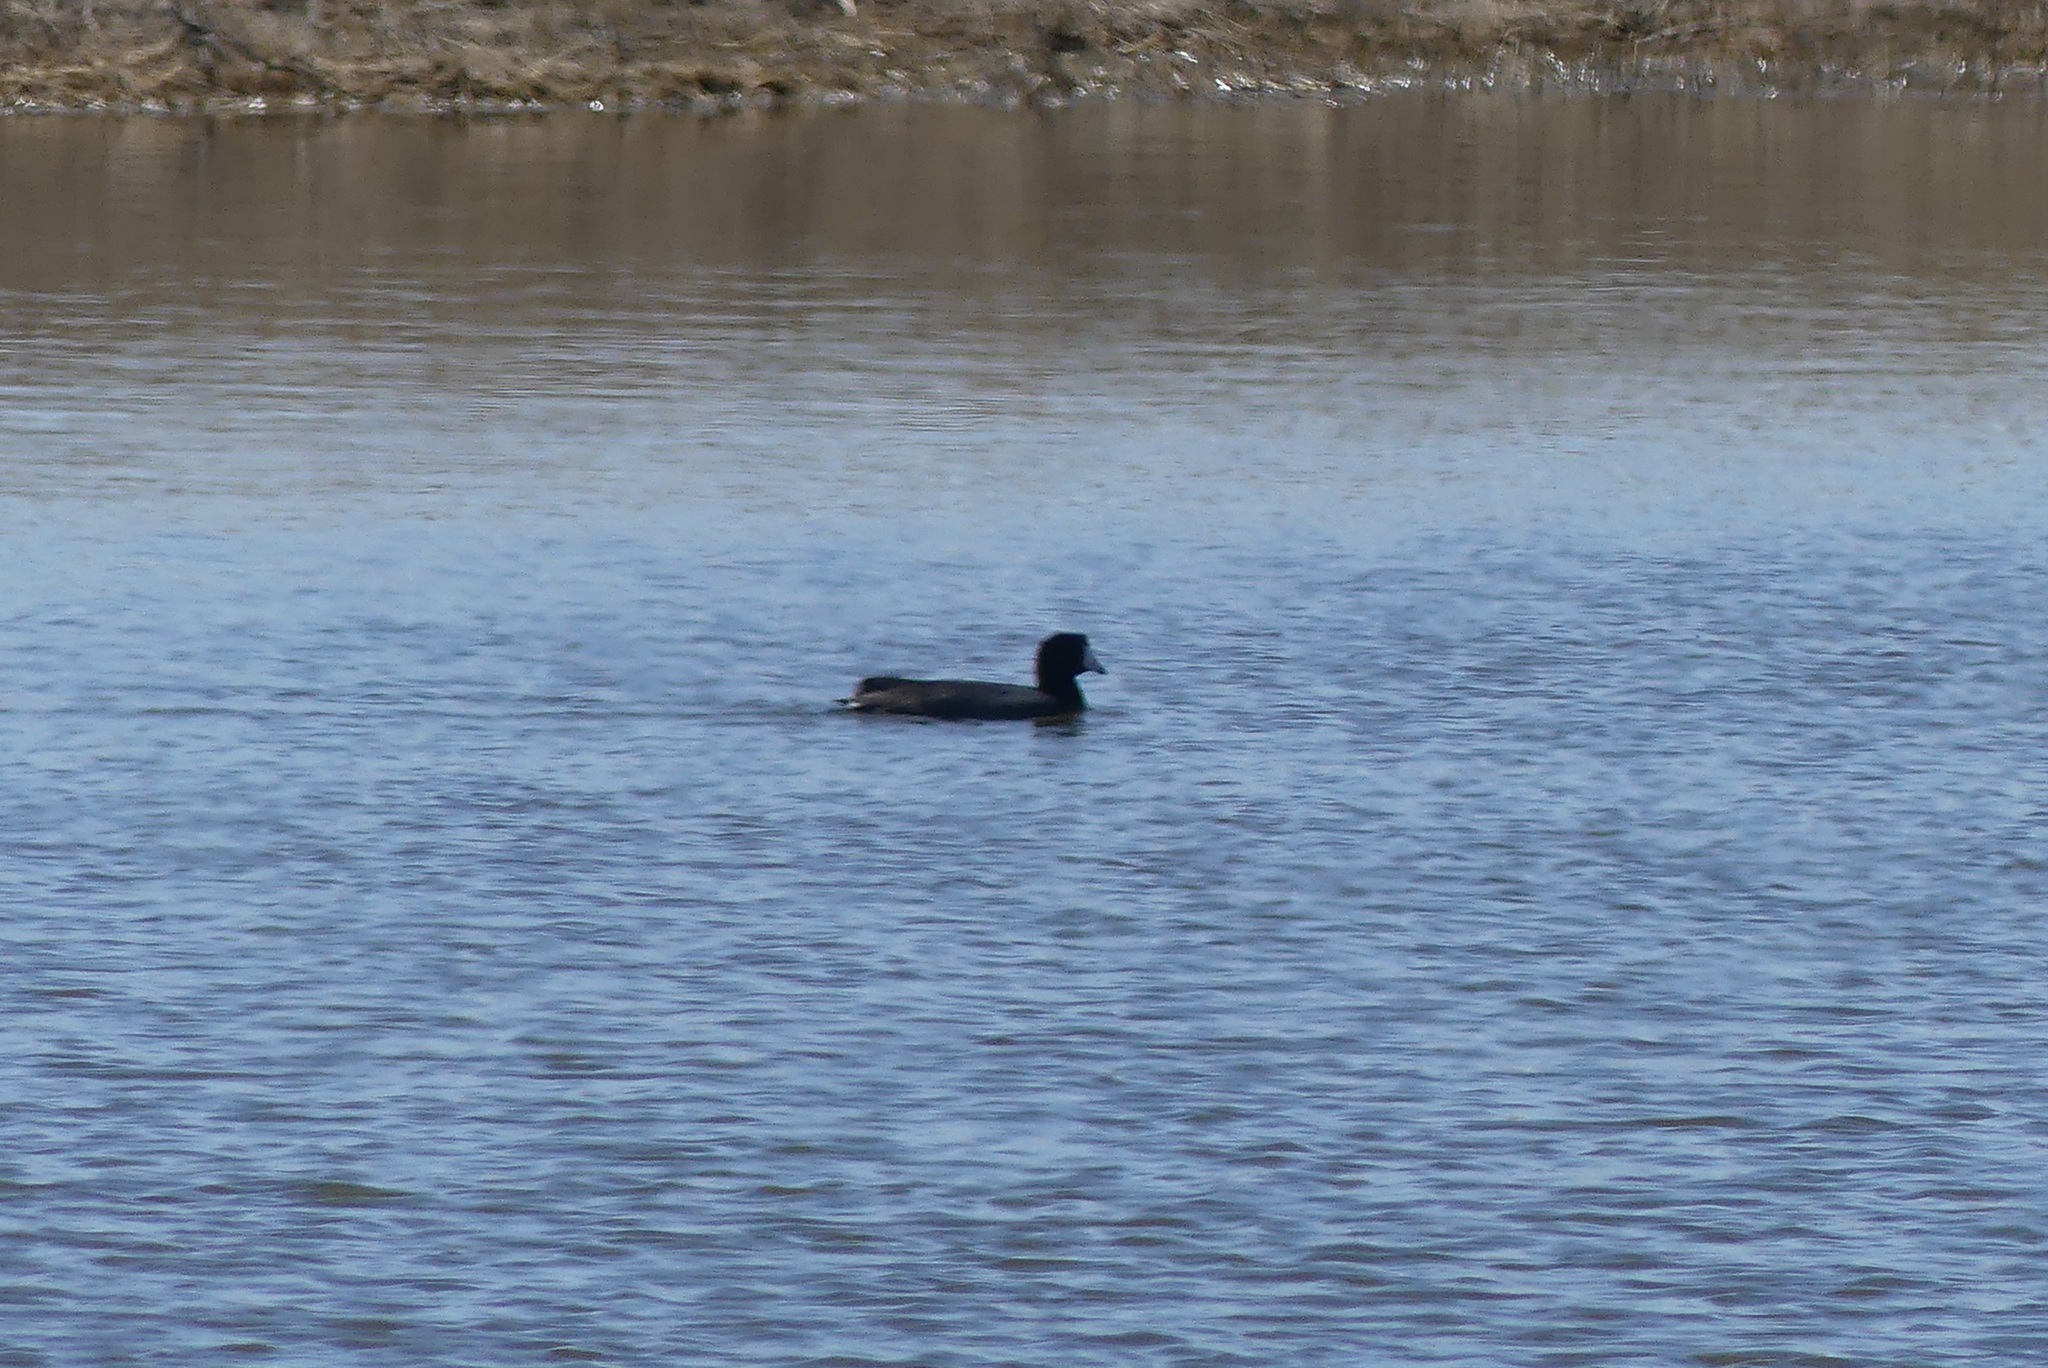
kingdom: Animalia
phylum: Chordata
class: Aves
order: Gruiformes
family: Rallidae
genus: Fulica
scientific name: Fulica americana
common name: American coot
